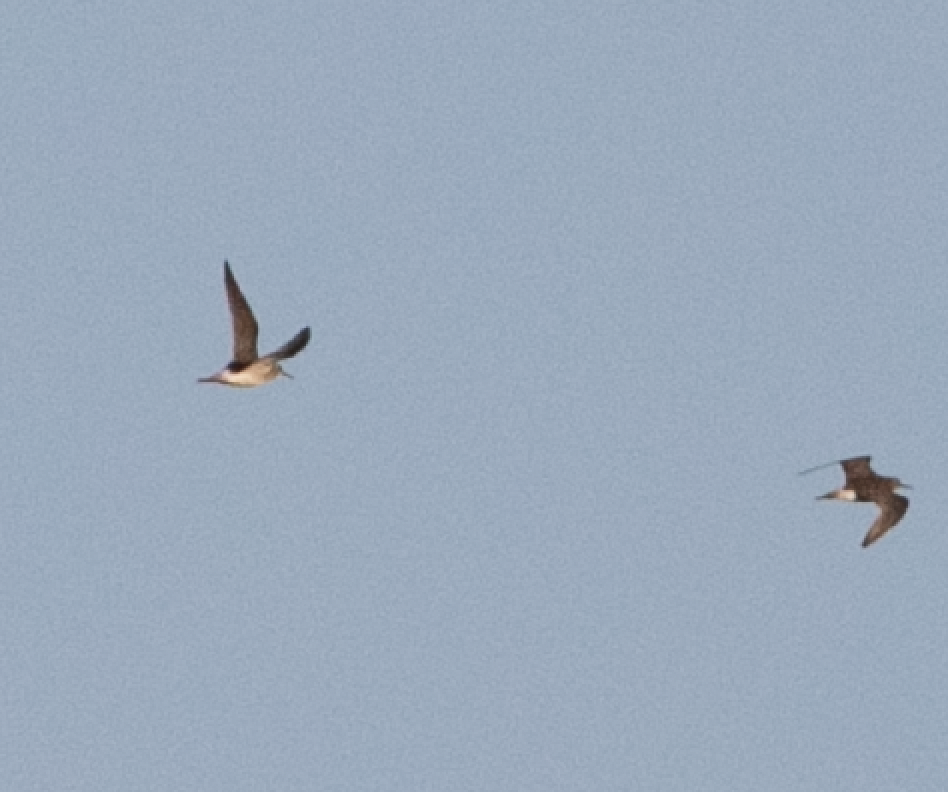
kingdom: Animalia
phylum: Chordata
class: Aves
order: Charadriiformes
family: Scolopacidae
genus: Tringa
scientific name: Tringa glareola
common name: Wood sandpiper
